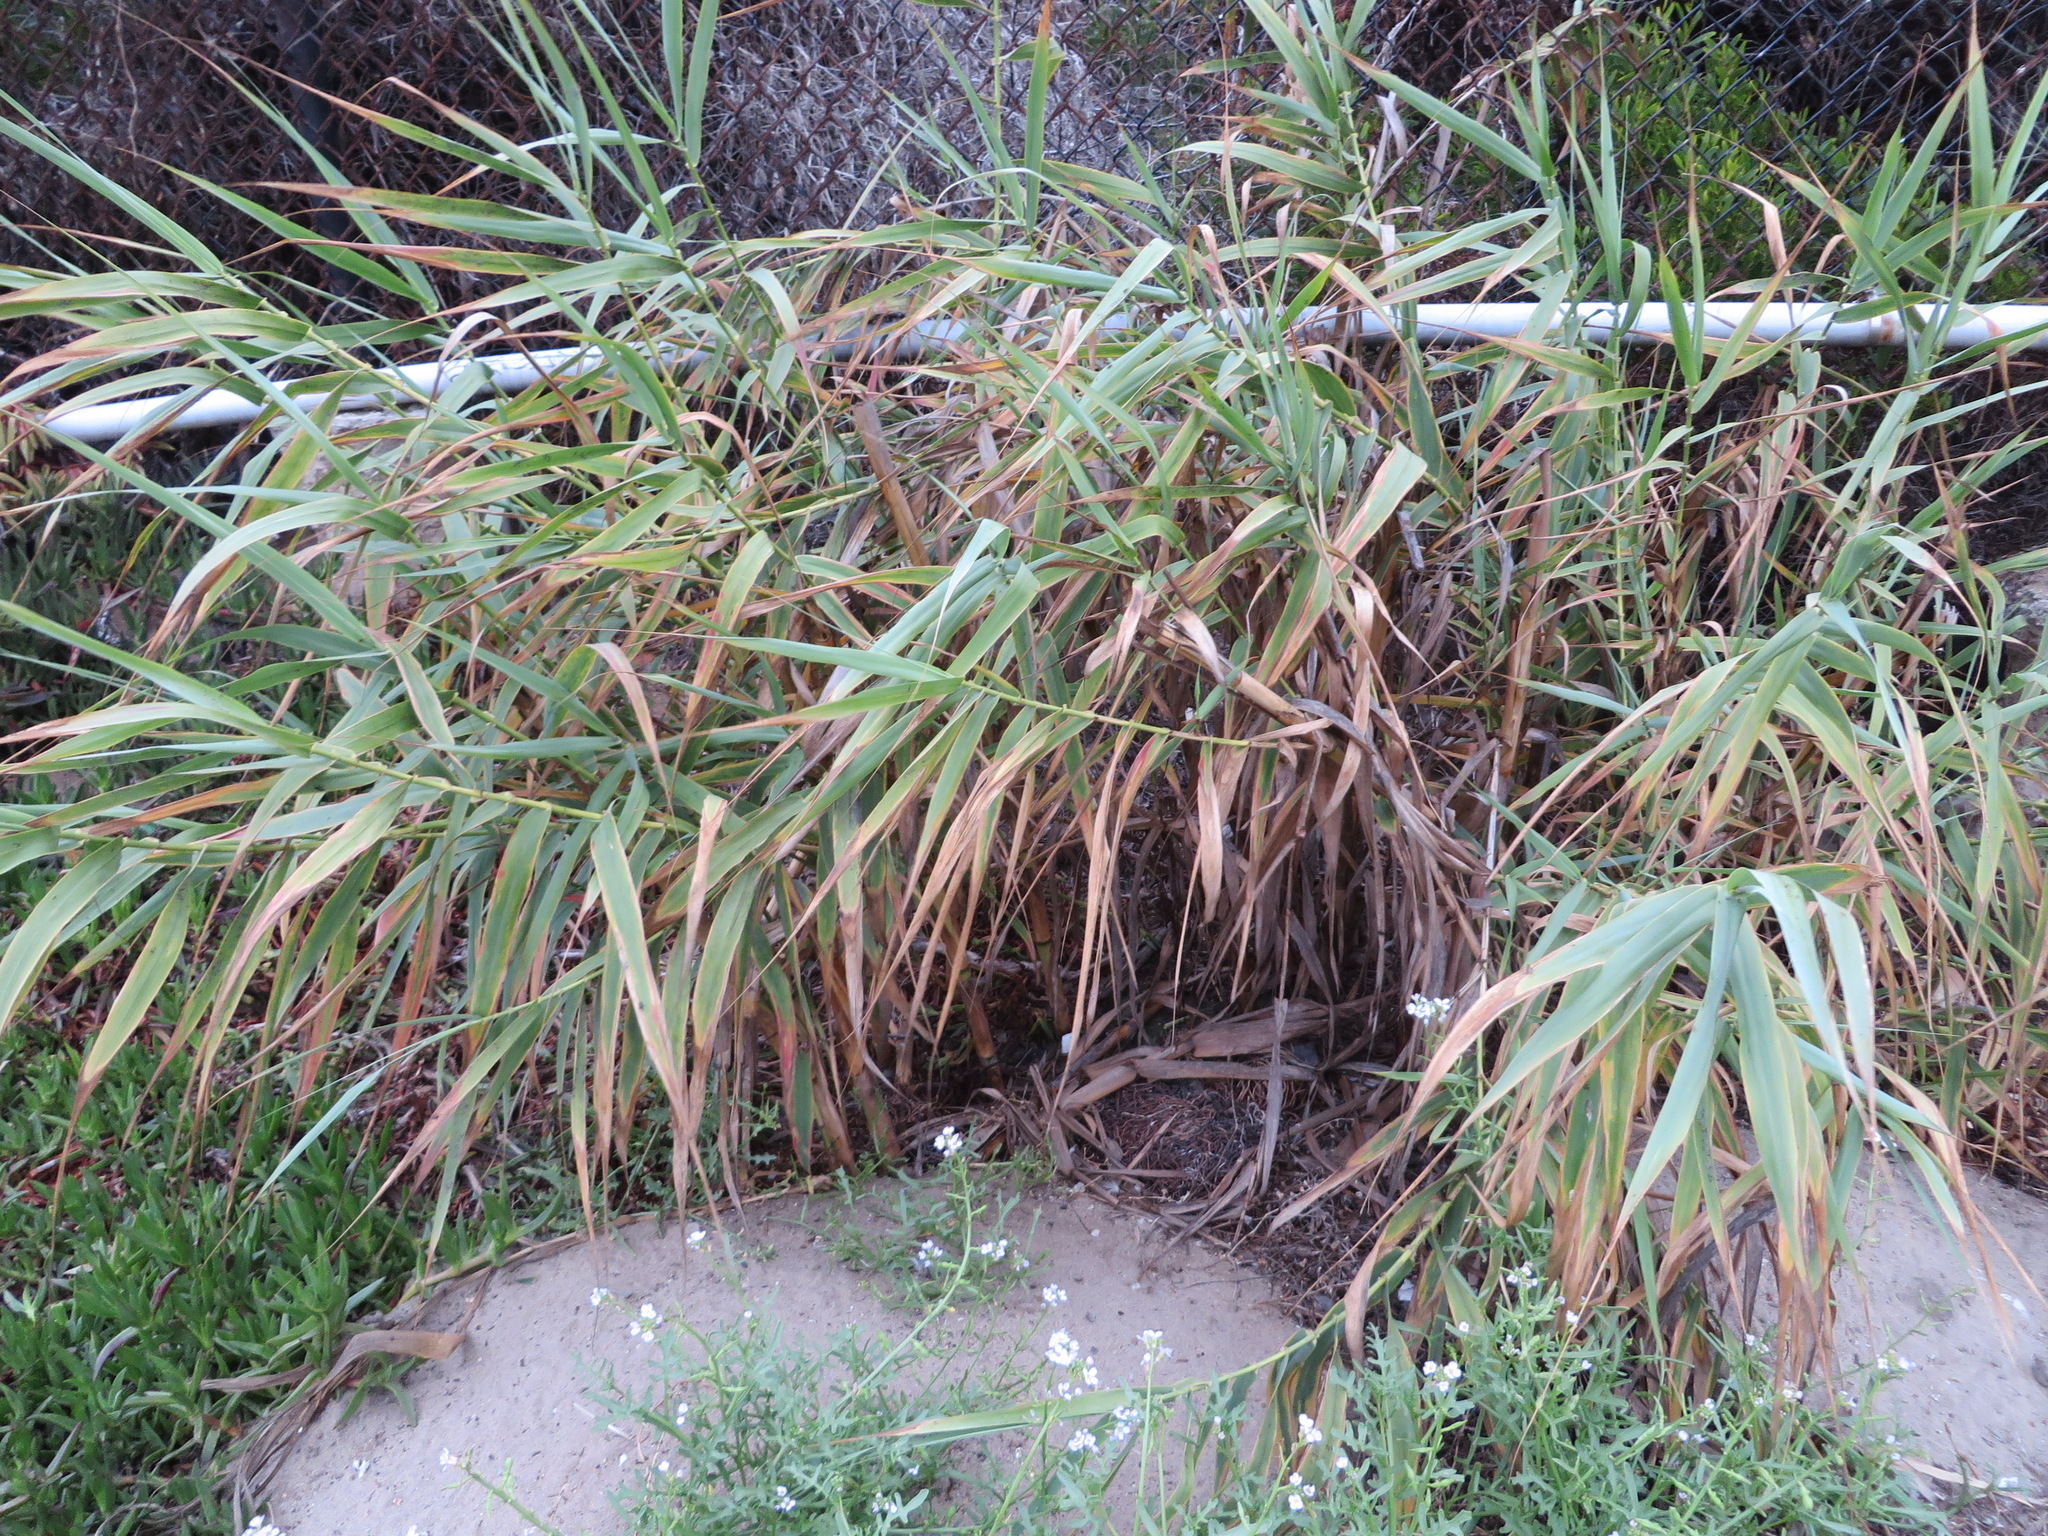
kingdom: Plantae
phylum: Tracheophyta
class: Liliopsida
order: Poales
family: Poaceae
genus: Arundo
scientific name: Arundo donax
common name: Giant reed
